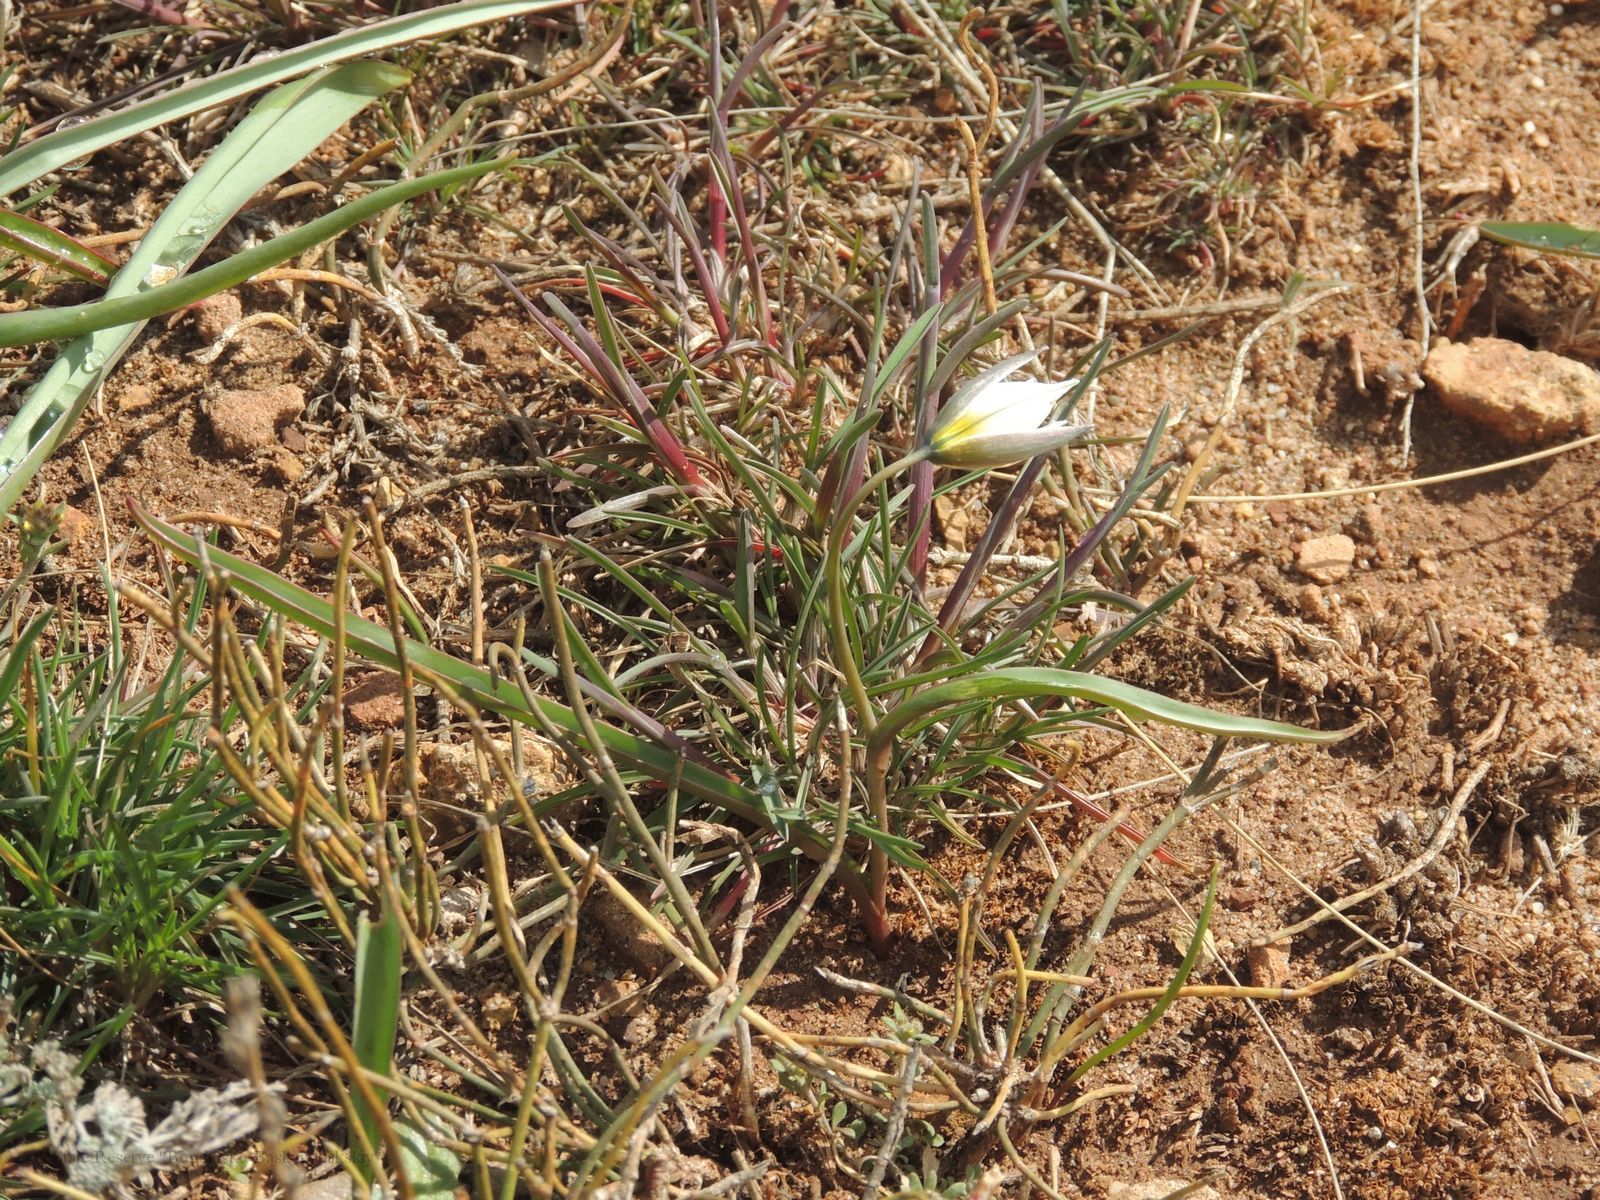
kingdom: Plantae
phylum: Tracheophyta
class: Liliopsida
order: Liliales
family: Liliaceae
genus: Tulipa
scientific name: Tulipa biflora
